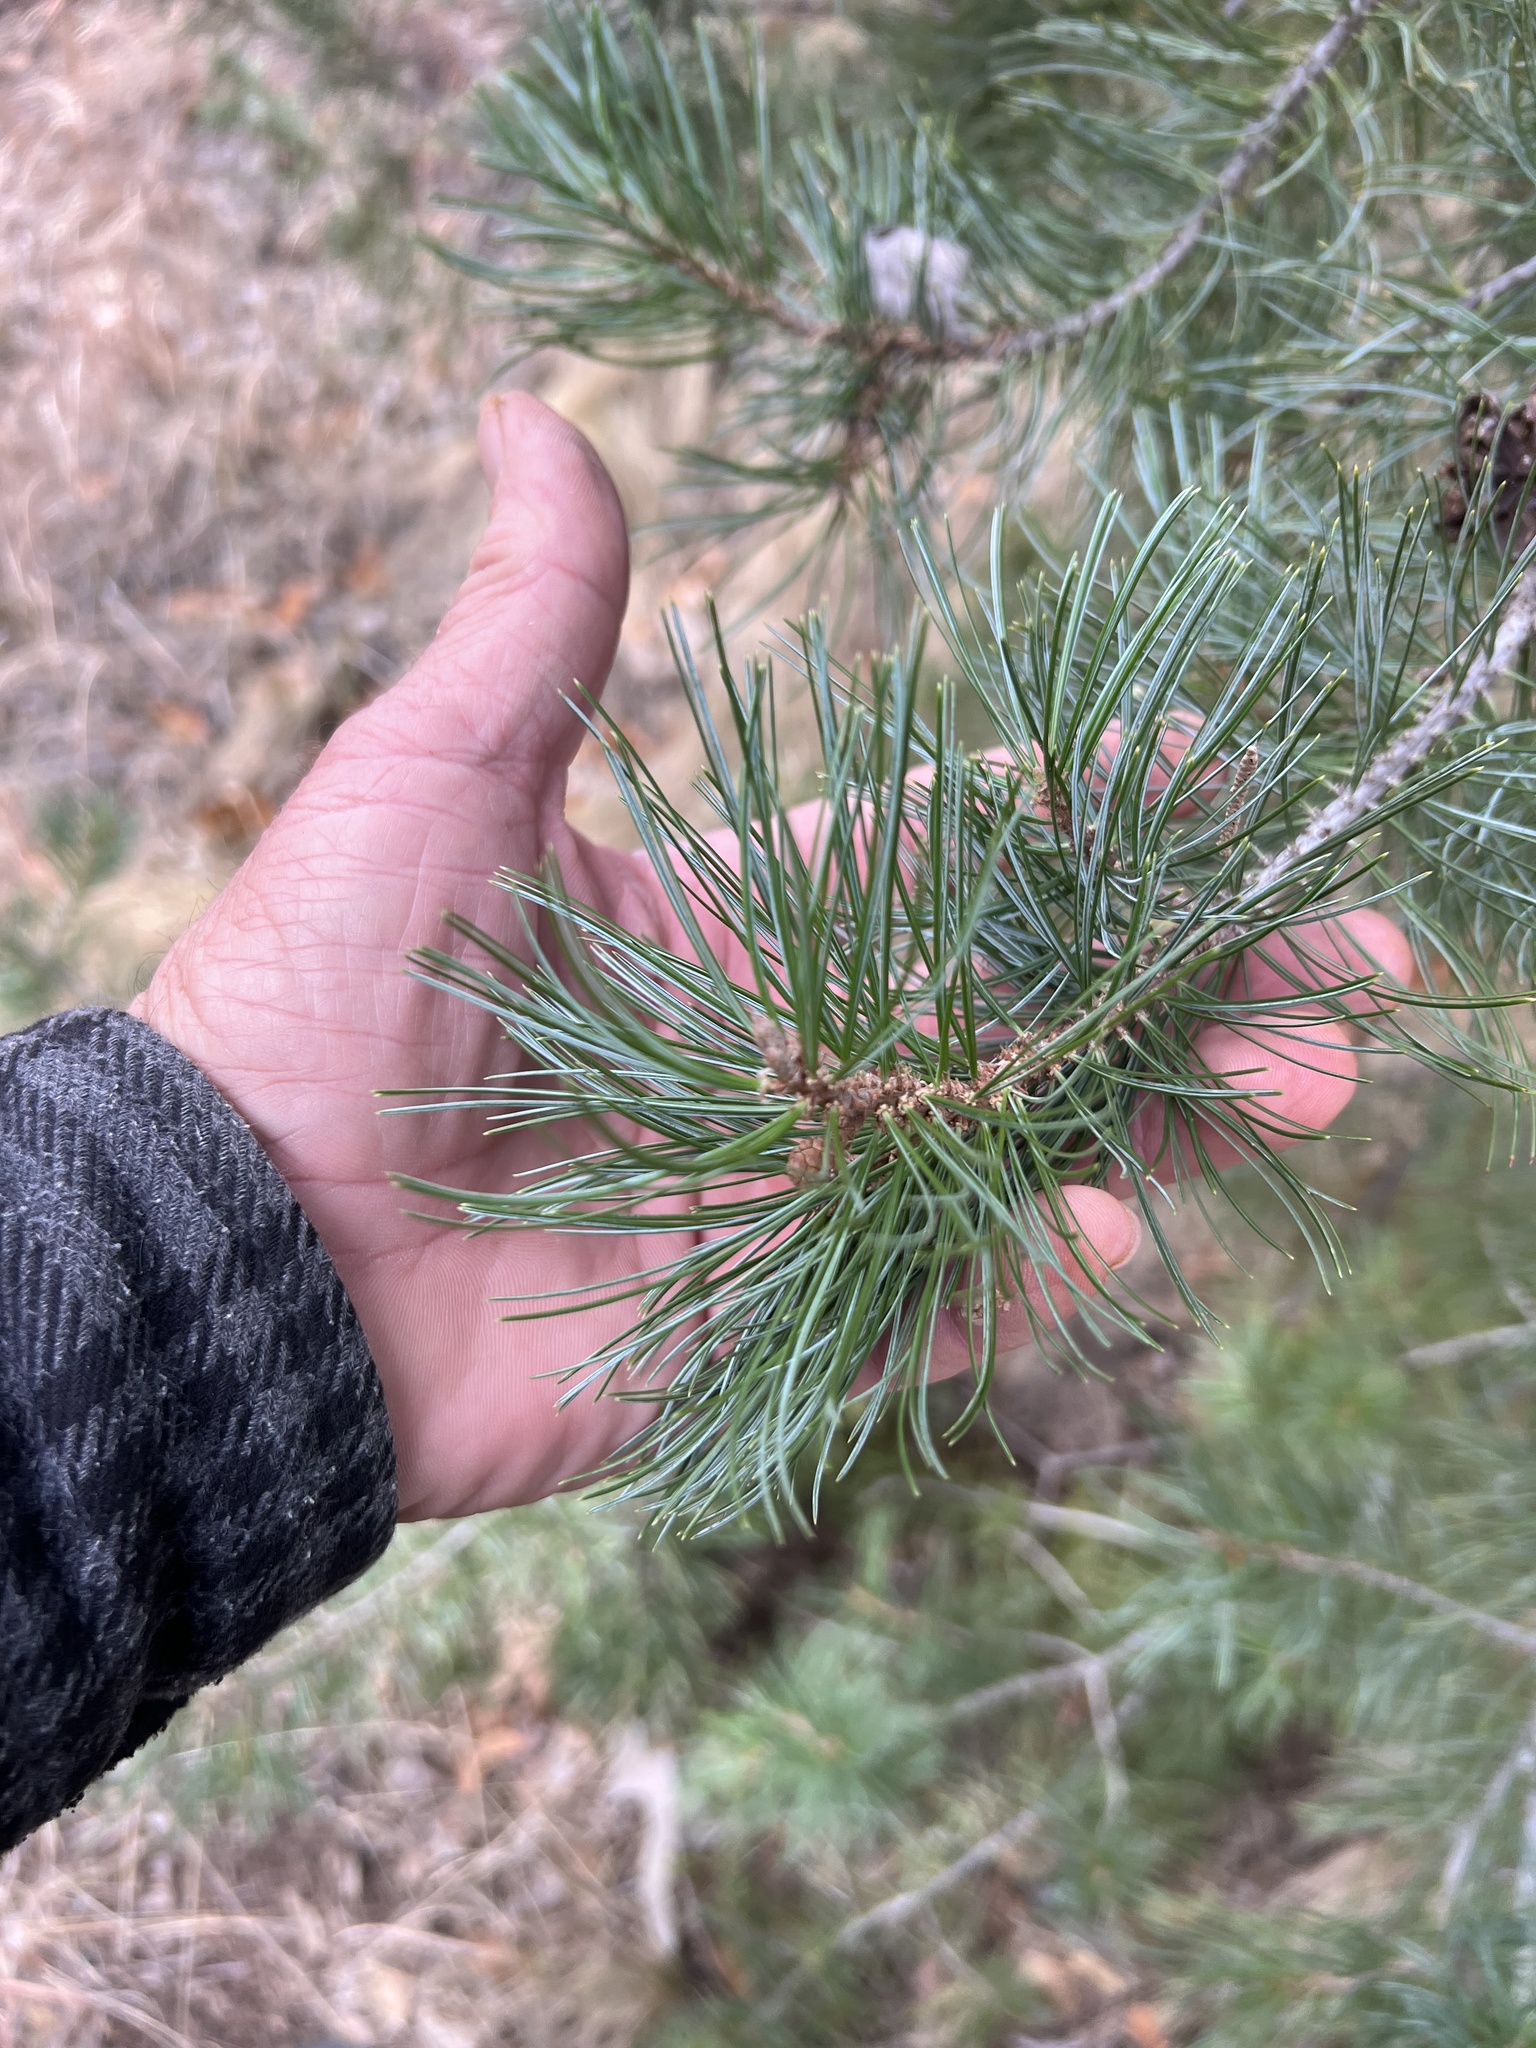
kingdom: Plantae
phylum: Tracheophyta
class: Pinopsida
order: Pinales
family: Pinaceae
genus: Pinus
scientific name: Pinus discolor
